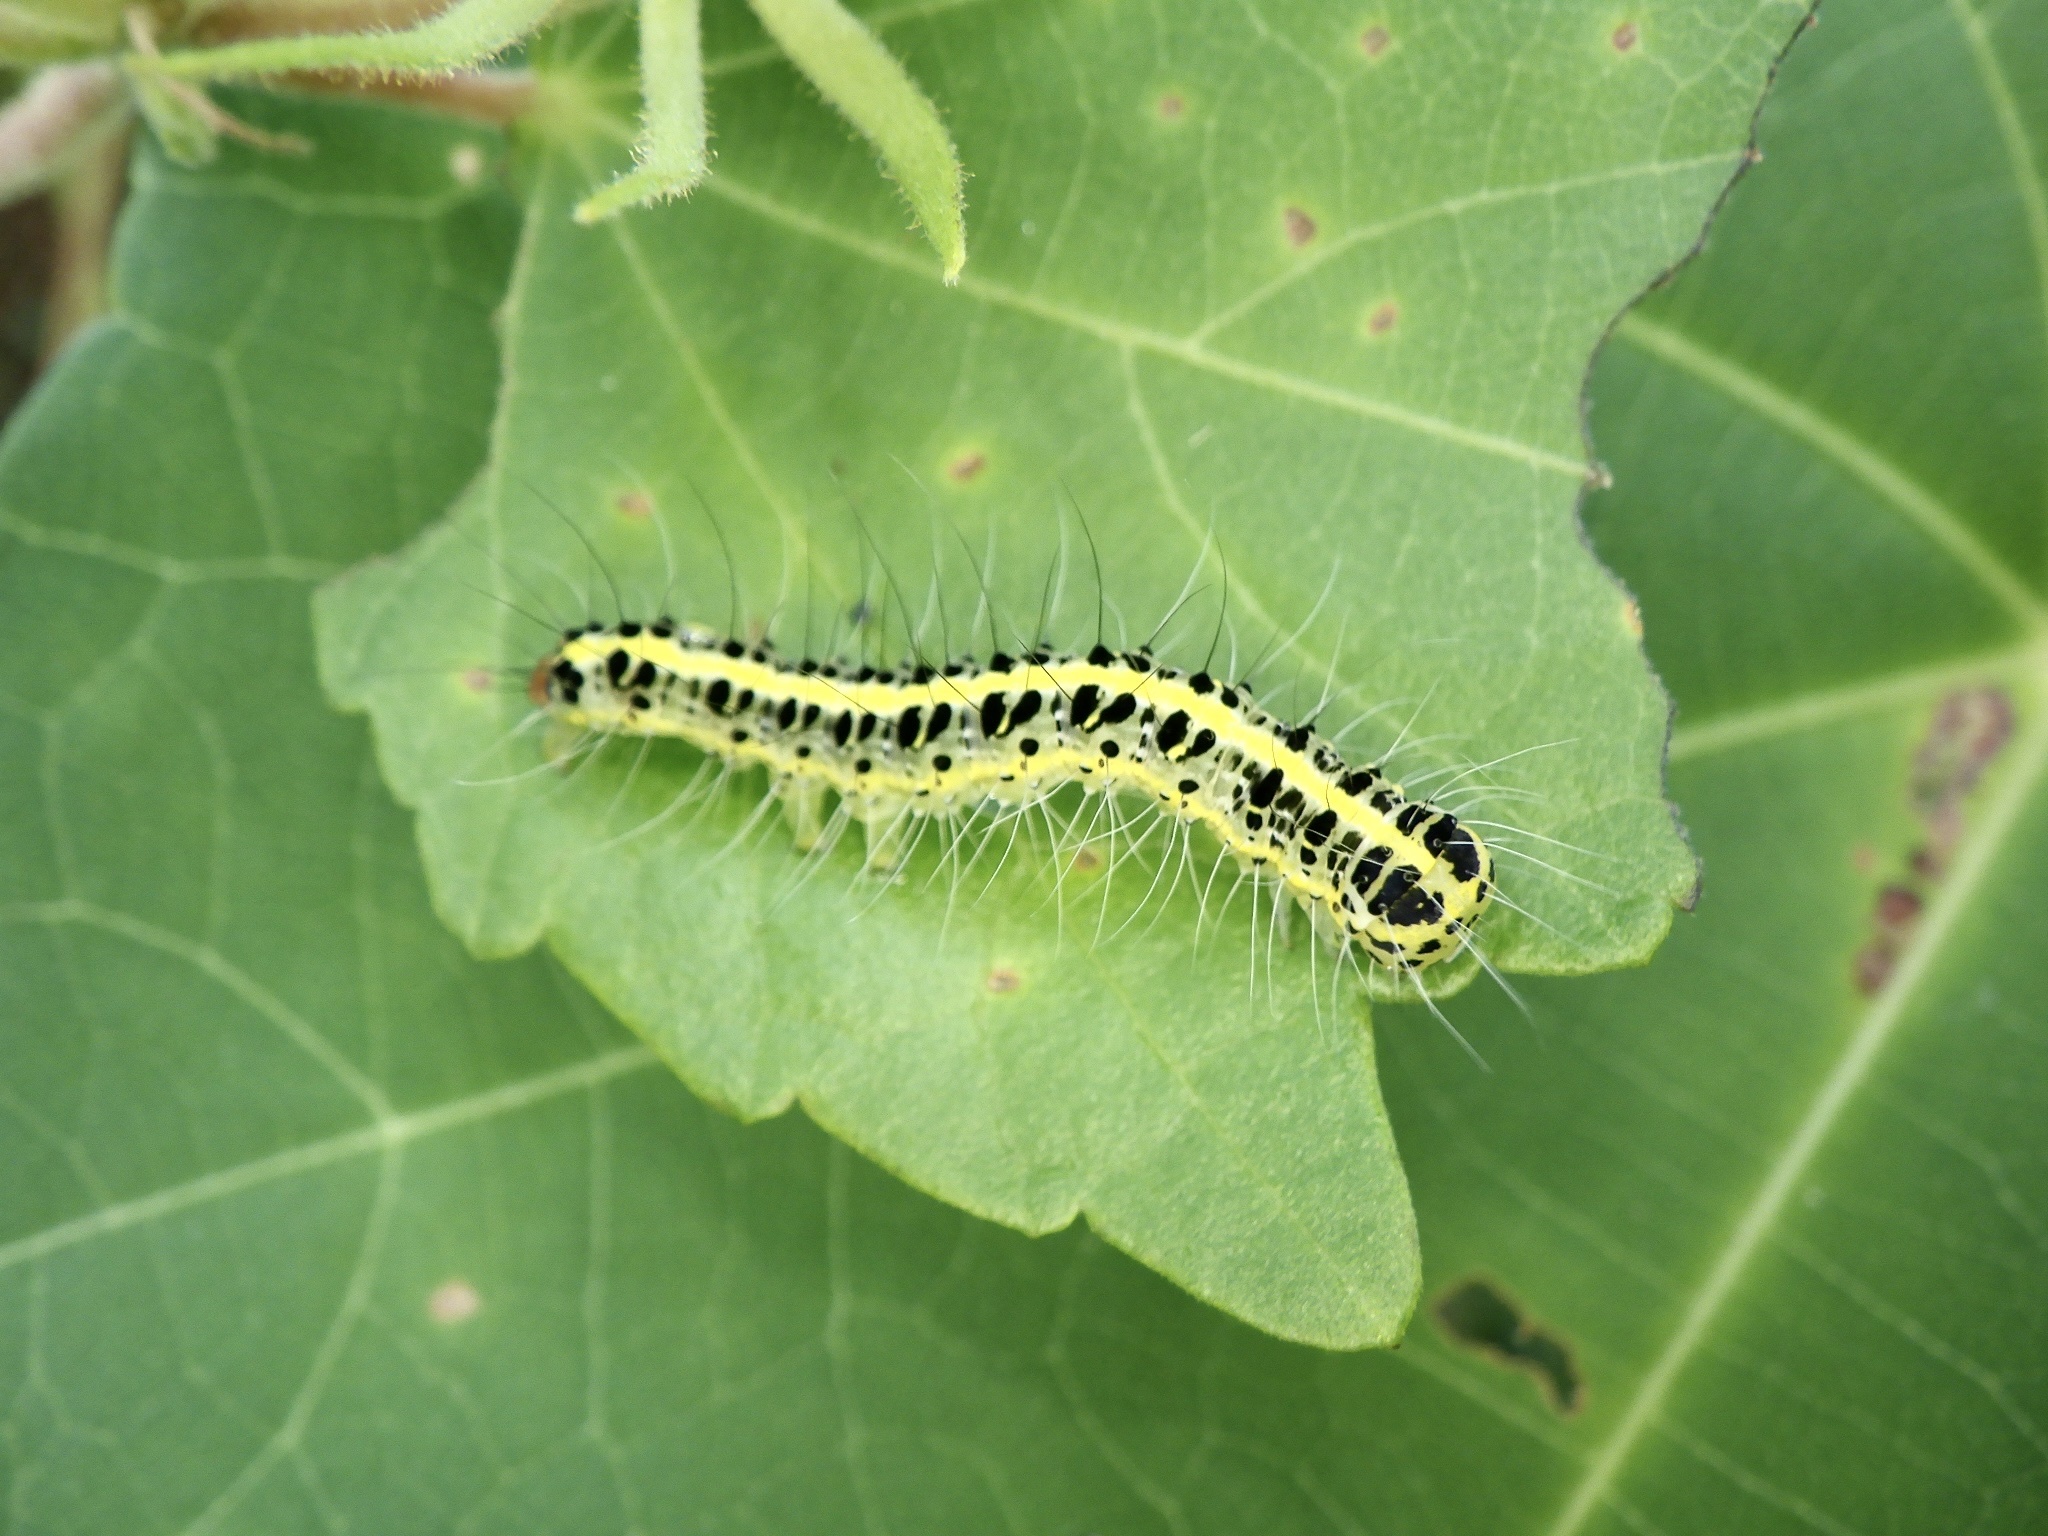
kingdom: Animalia
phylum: Arthropoda
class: Insecta
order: Lepidoptera
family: Nolidae
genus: Xanthodes
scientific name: Xanthodes transversa
